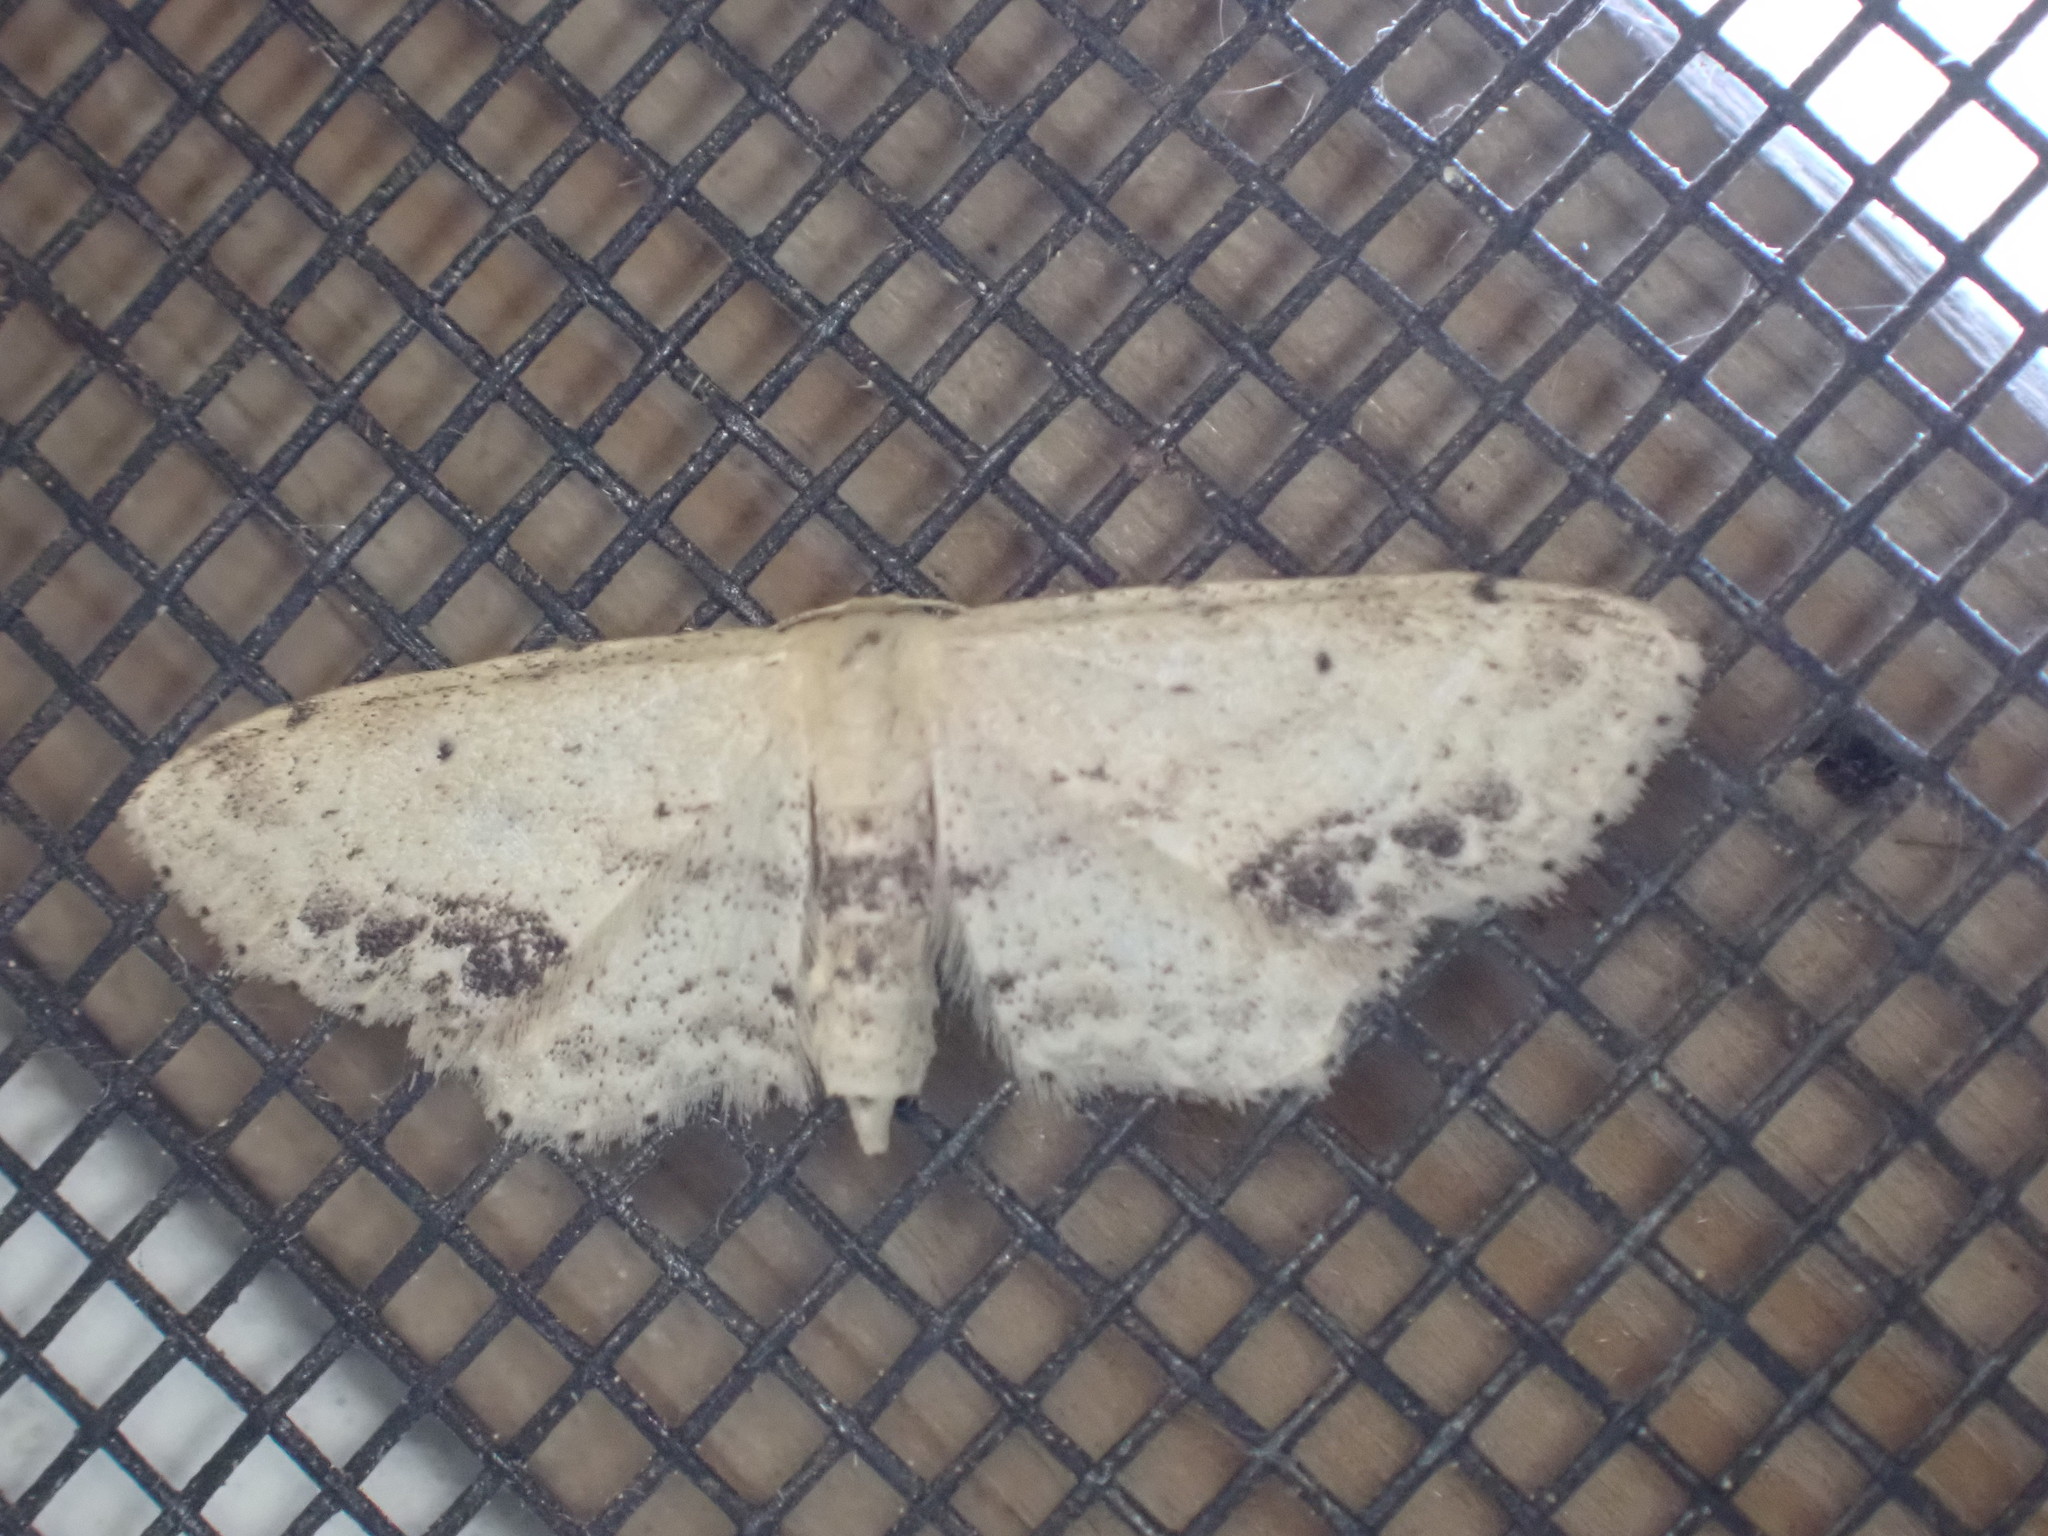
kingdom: Animalia
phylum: Arthropoda
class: Insecta
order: Lepidoptera
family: Geometridae
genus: Idaea
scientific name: Idaea dimidiata
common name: Single-dotted wave
